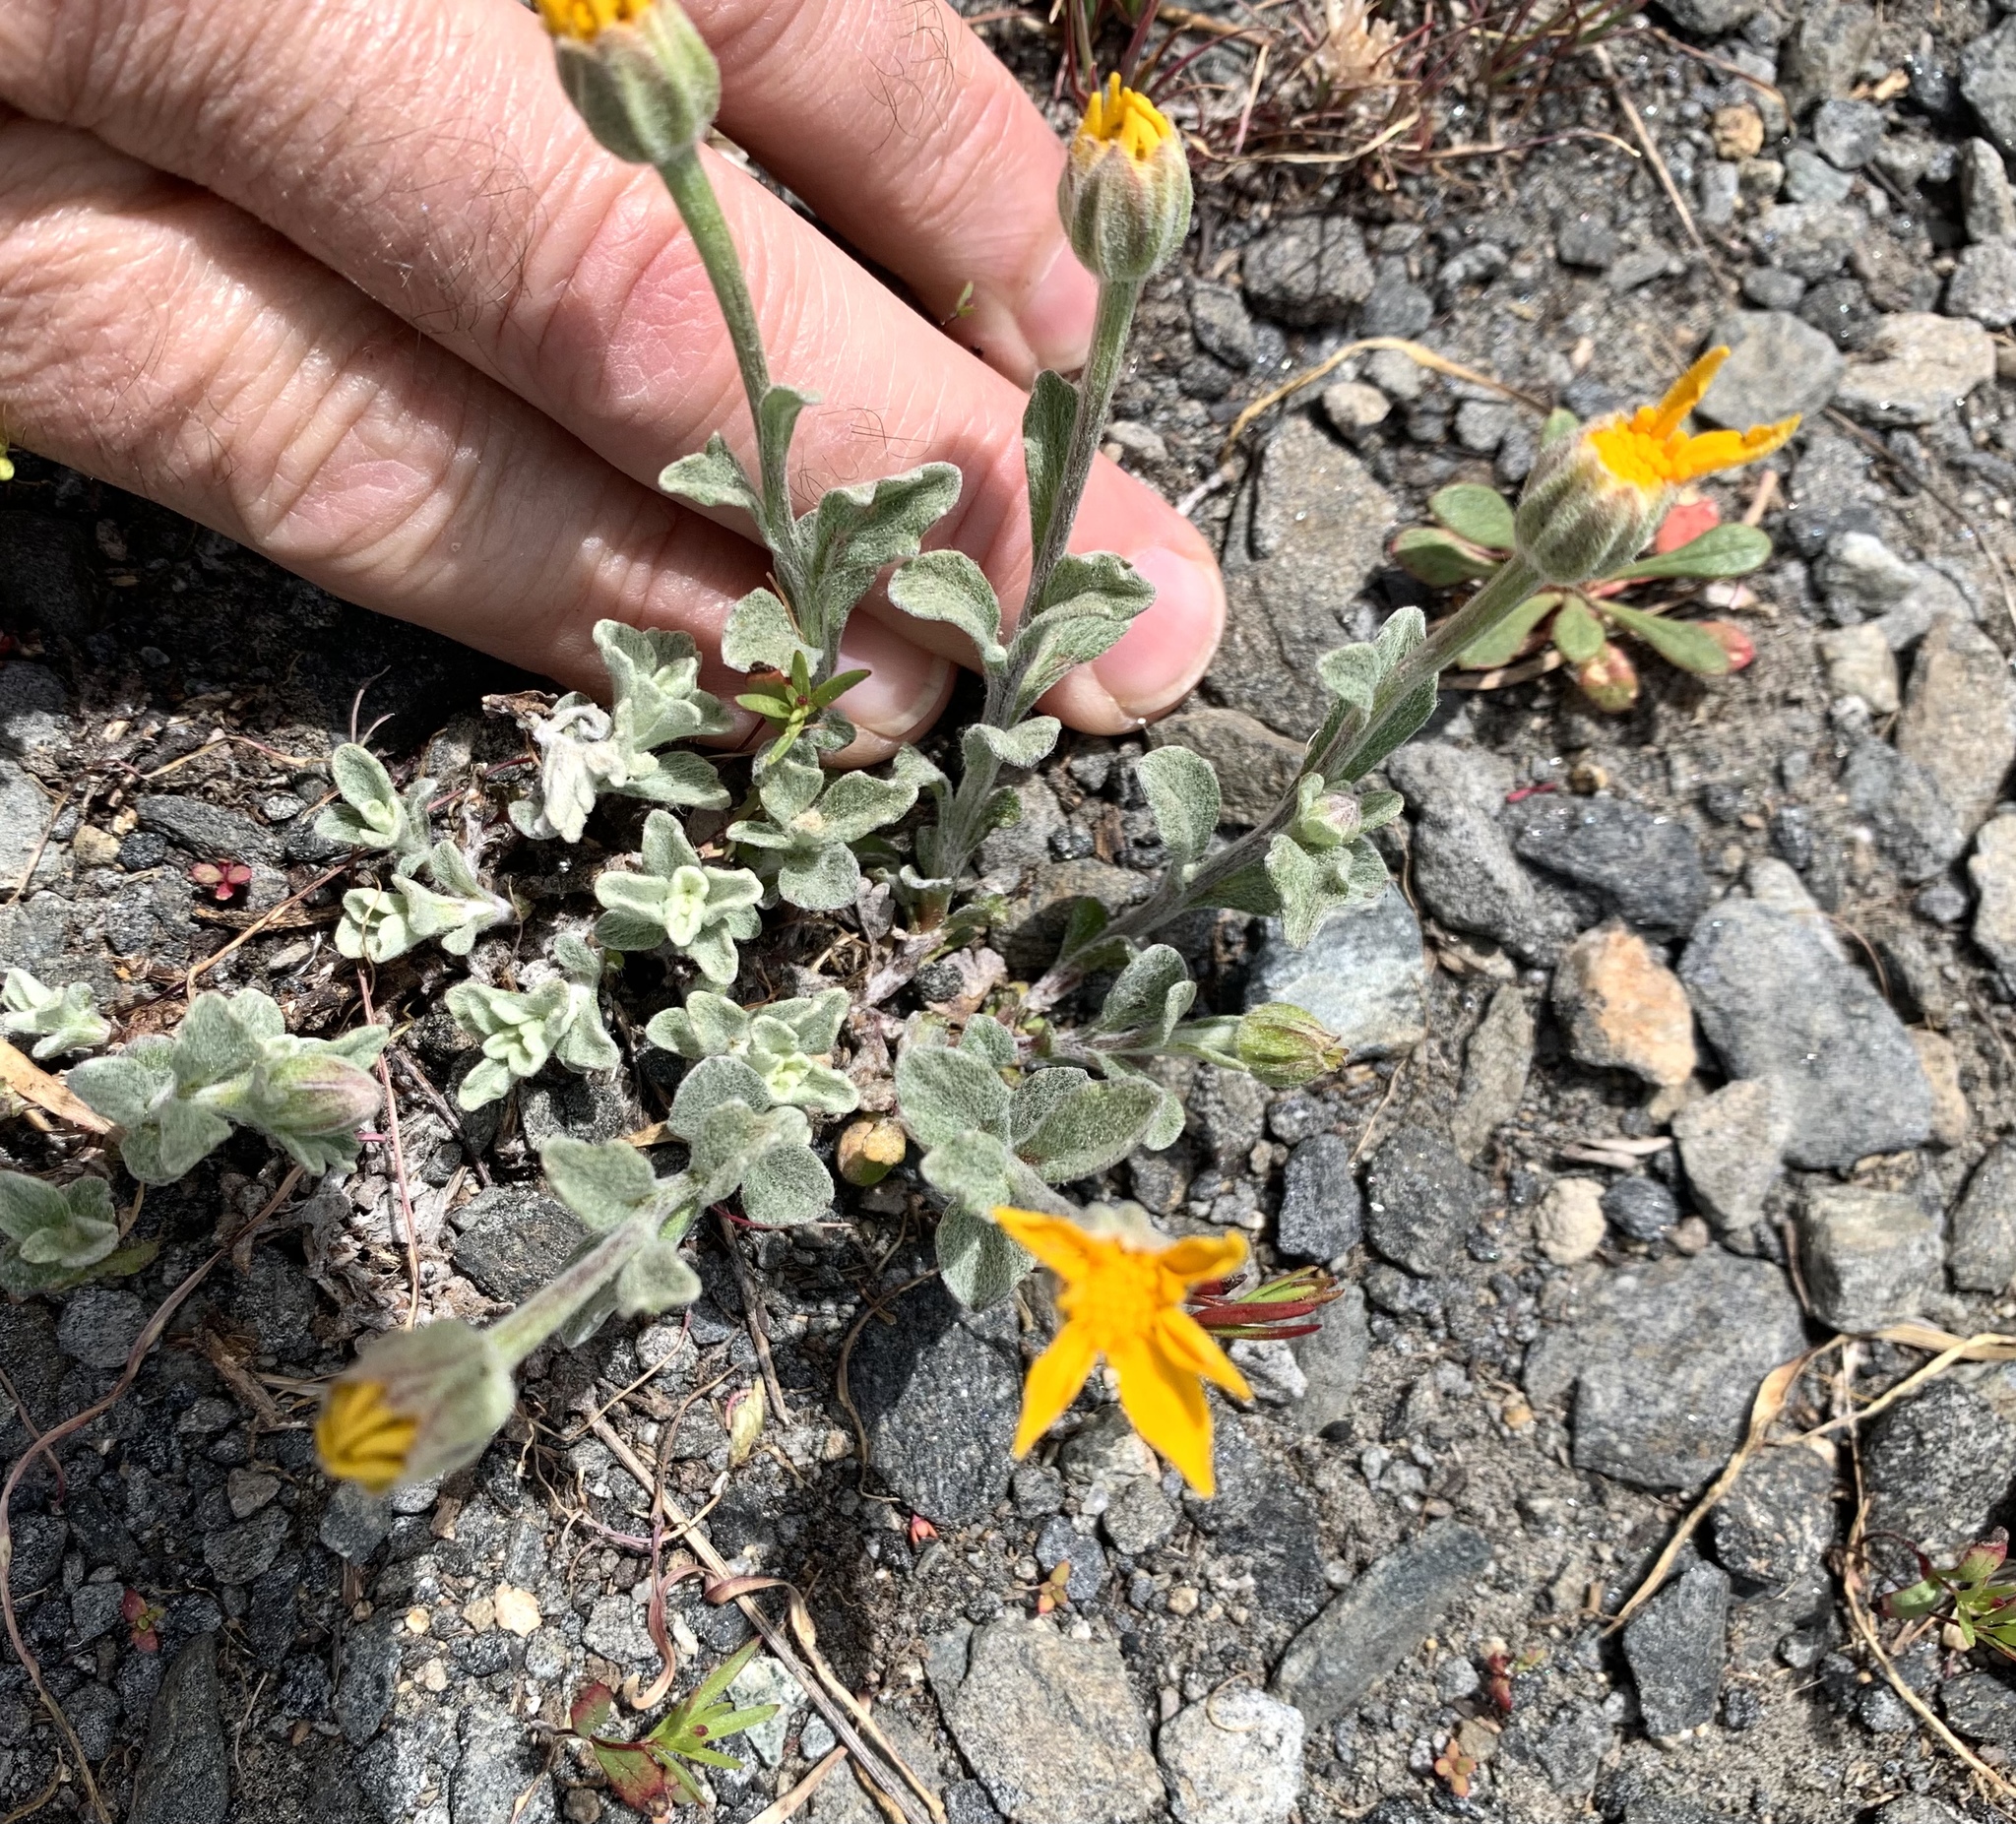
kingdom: Plantae
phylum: Tracheophyta
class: Magnoliopsida
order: Asterales
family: Asteraceae
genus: Eriophyllum
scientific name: Eriophyllum lanatum
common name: Common woolly-sunflower
